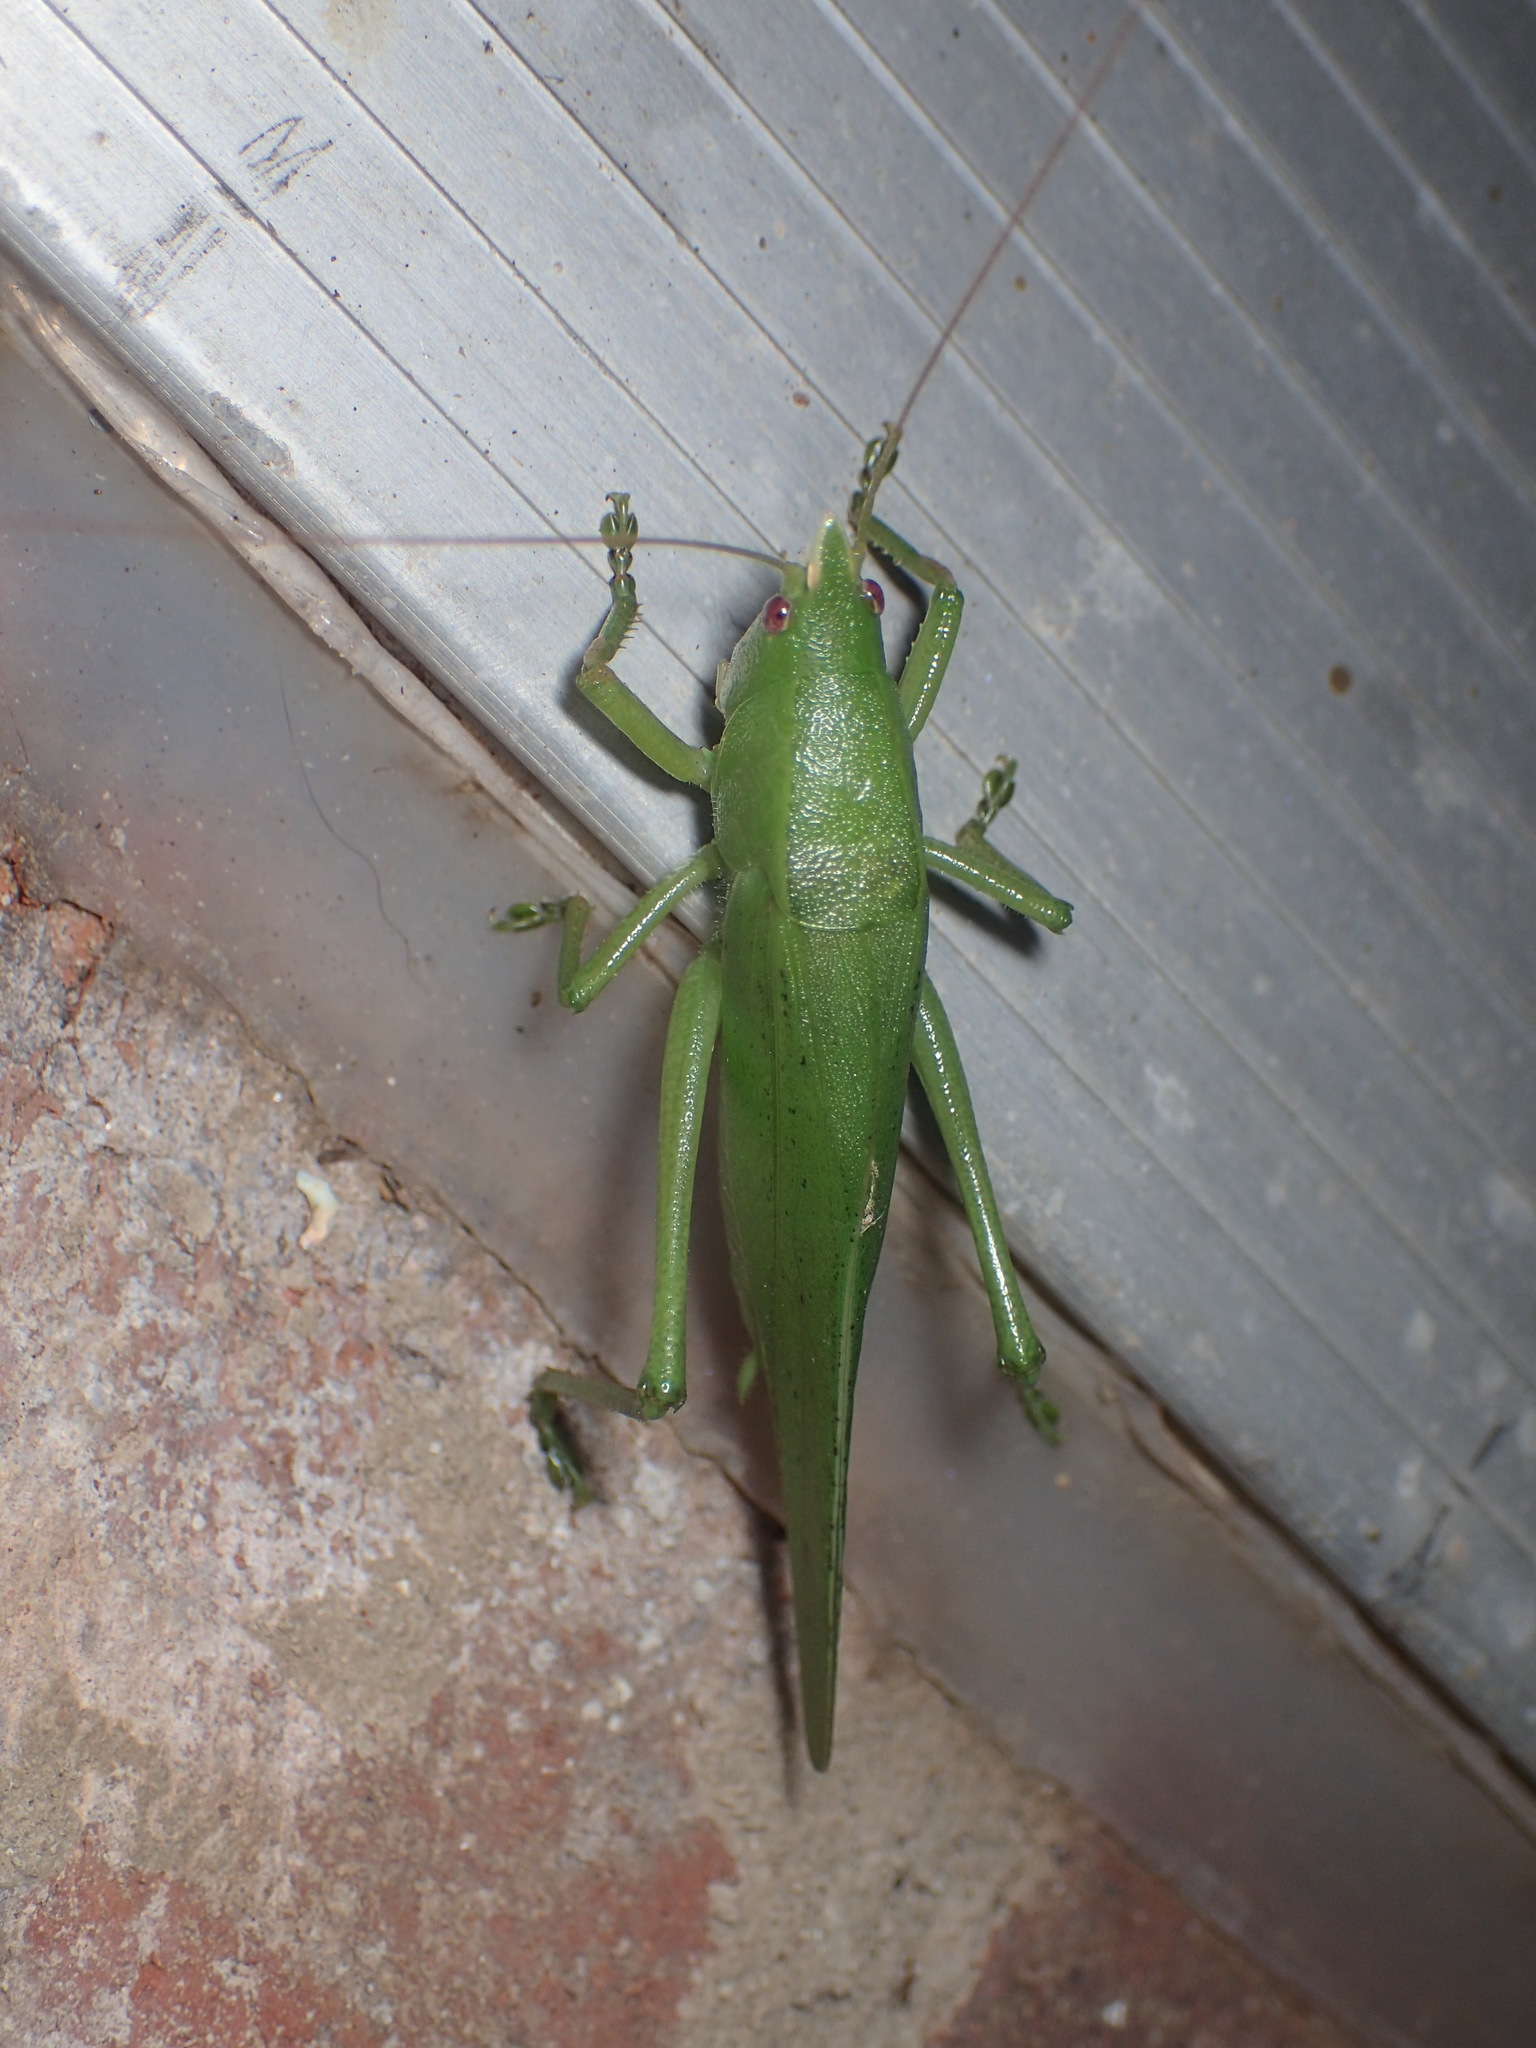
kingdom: Animalia
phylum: Arthropoda
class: Insecta
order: Orthoptera
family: Tettigoniidae
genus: Pyrgocorypha
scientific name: Pyrgocorypha uncinata
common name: Hook-faced conehead
